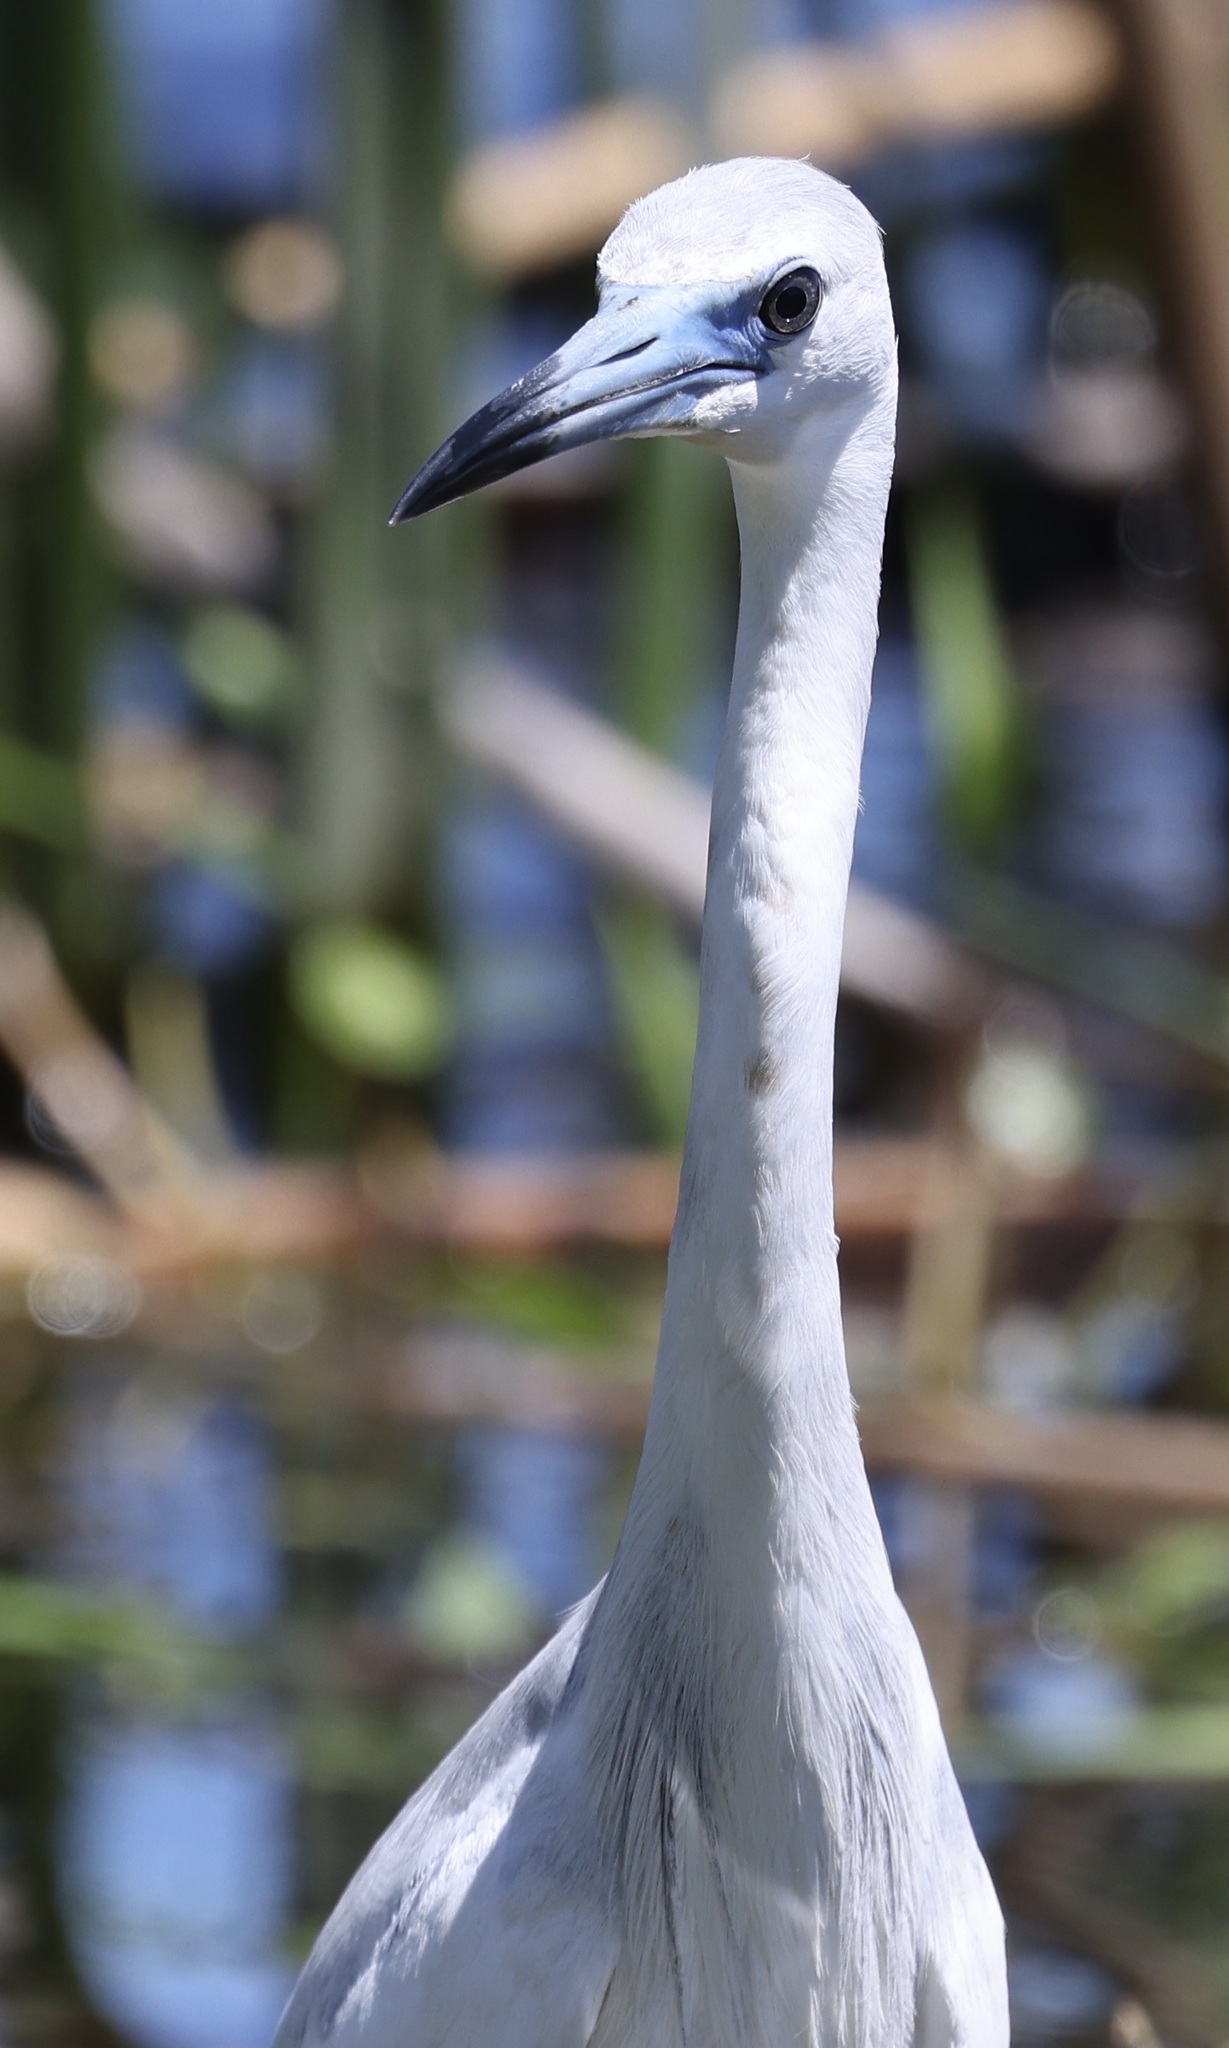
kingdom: Animalia
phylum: Chordata
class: Aves
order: Pelecaniformes
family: Ardeidae
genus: Egretta
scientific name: Egretta caerulea
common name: Little blue heron
